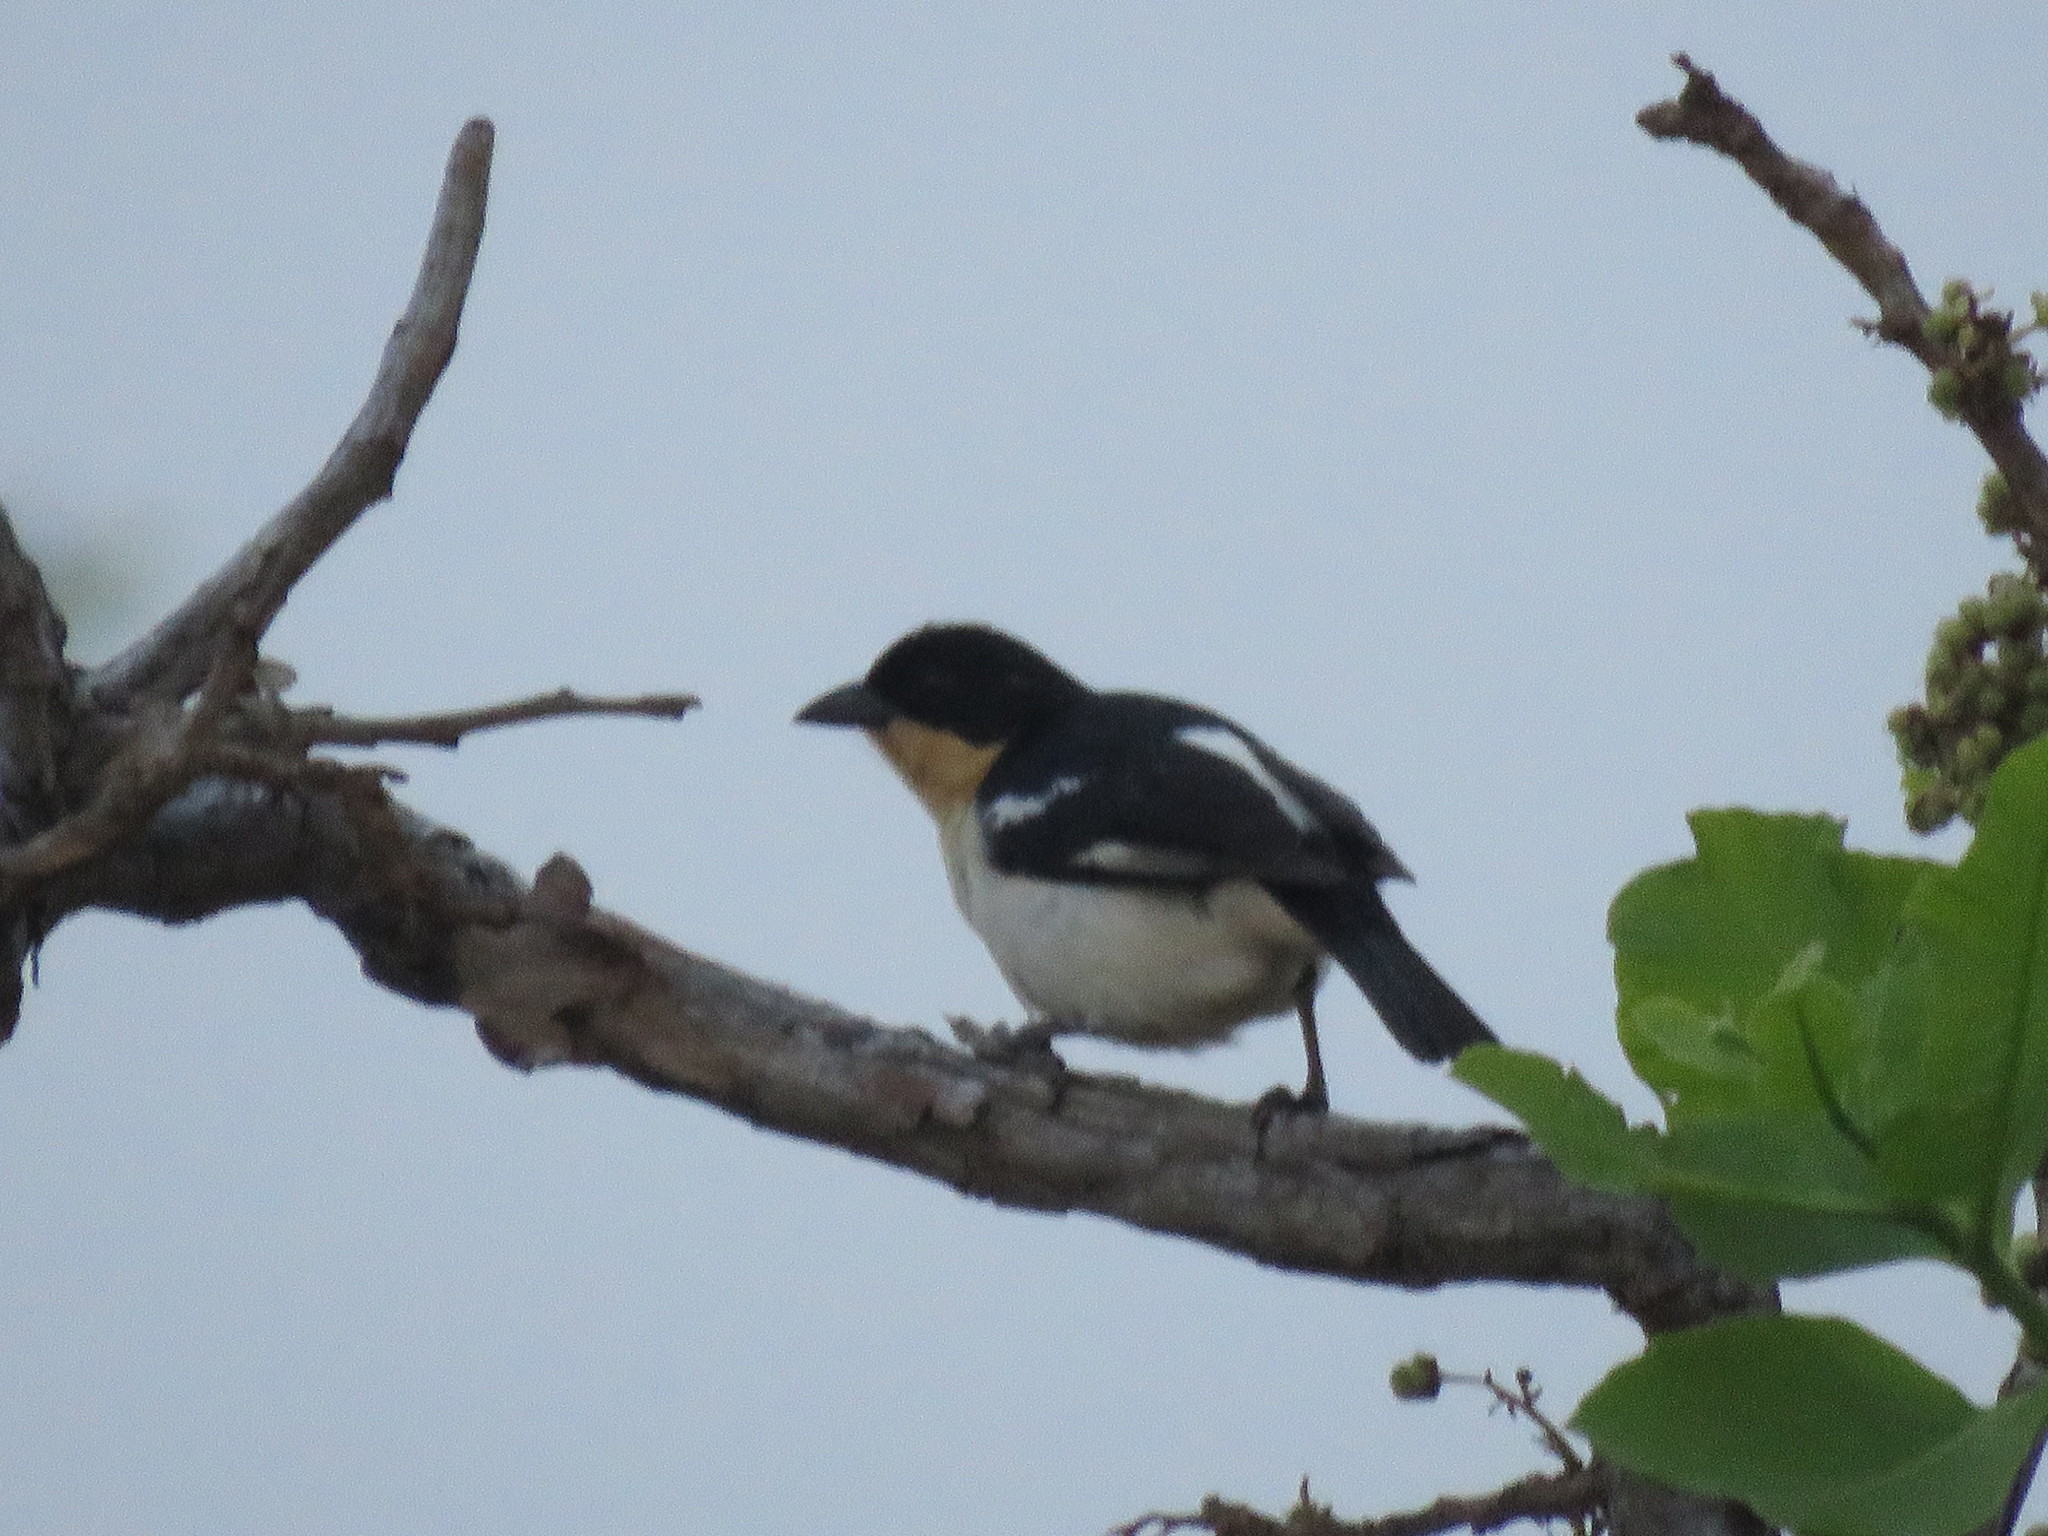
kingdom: Animalia
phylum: Chordata
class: Aves
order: Passeriformes
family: Thraupidae
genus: Cypsnagra
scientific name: Cypsnagra hirundinacea
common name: White-rumped tanager
